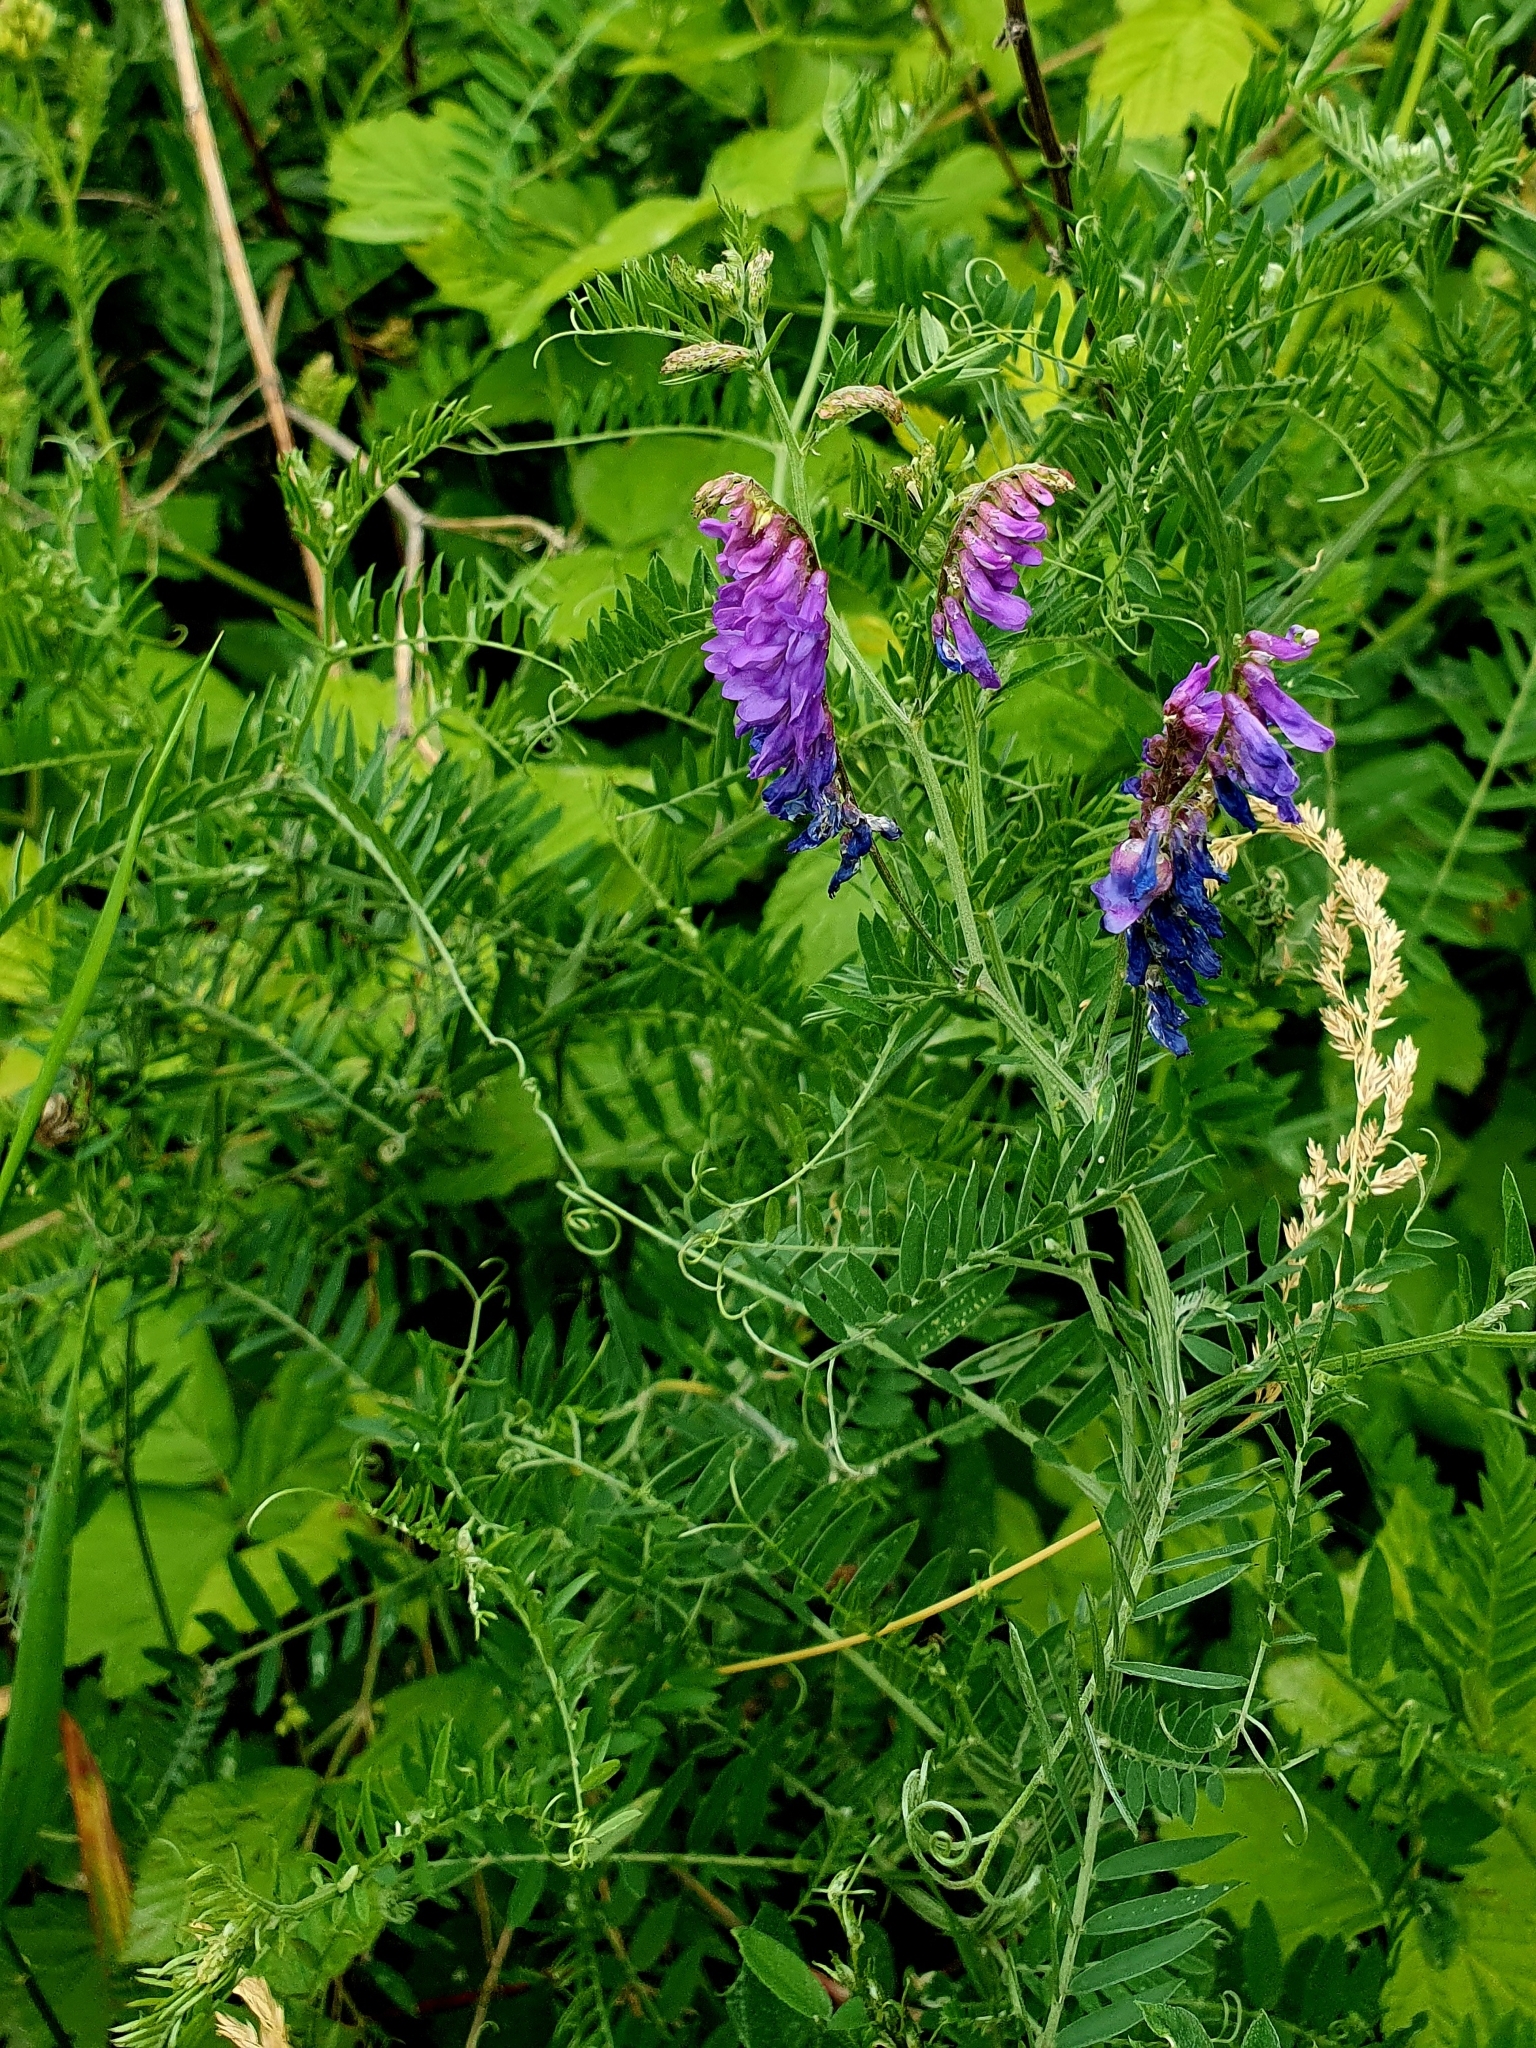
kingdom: Plantae
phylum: Tracheophyta
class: Magnoliopsida
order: Fabales
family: Fabaceae
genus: Vicia
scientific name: Vicia cracca
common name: Bird vetch
